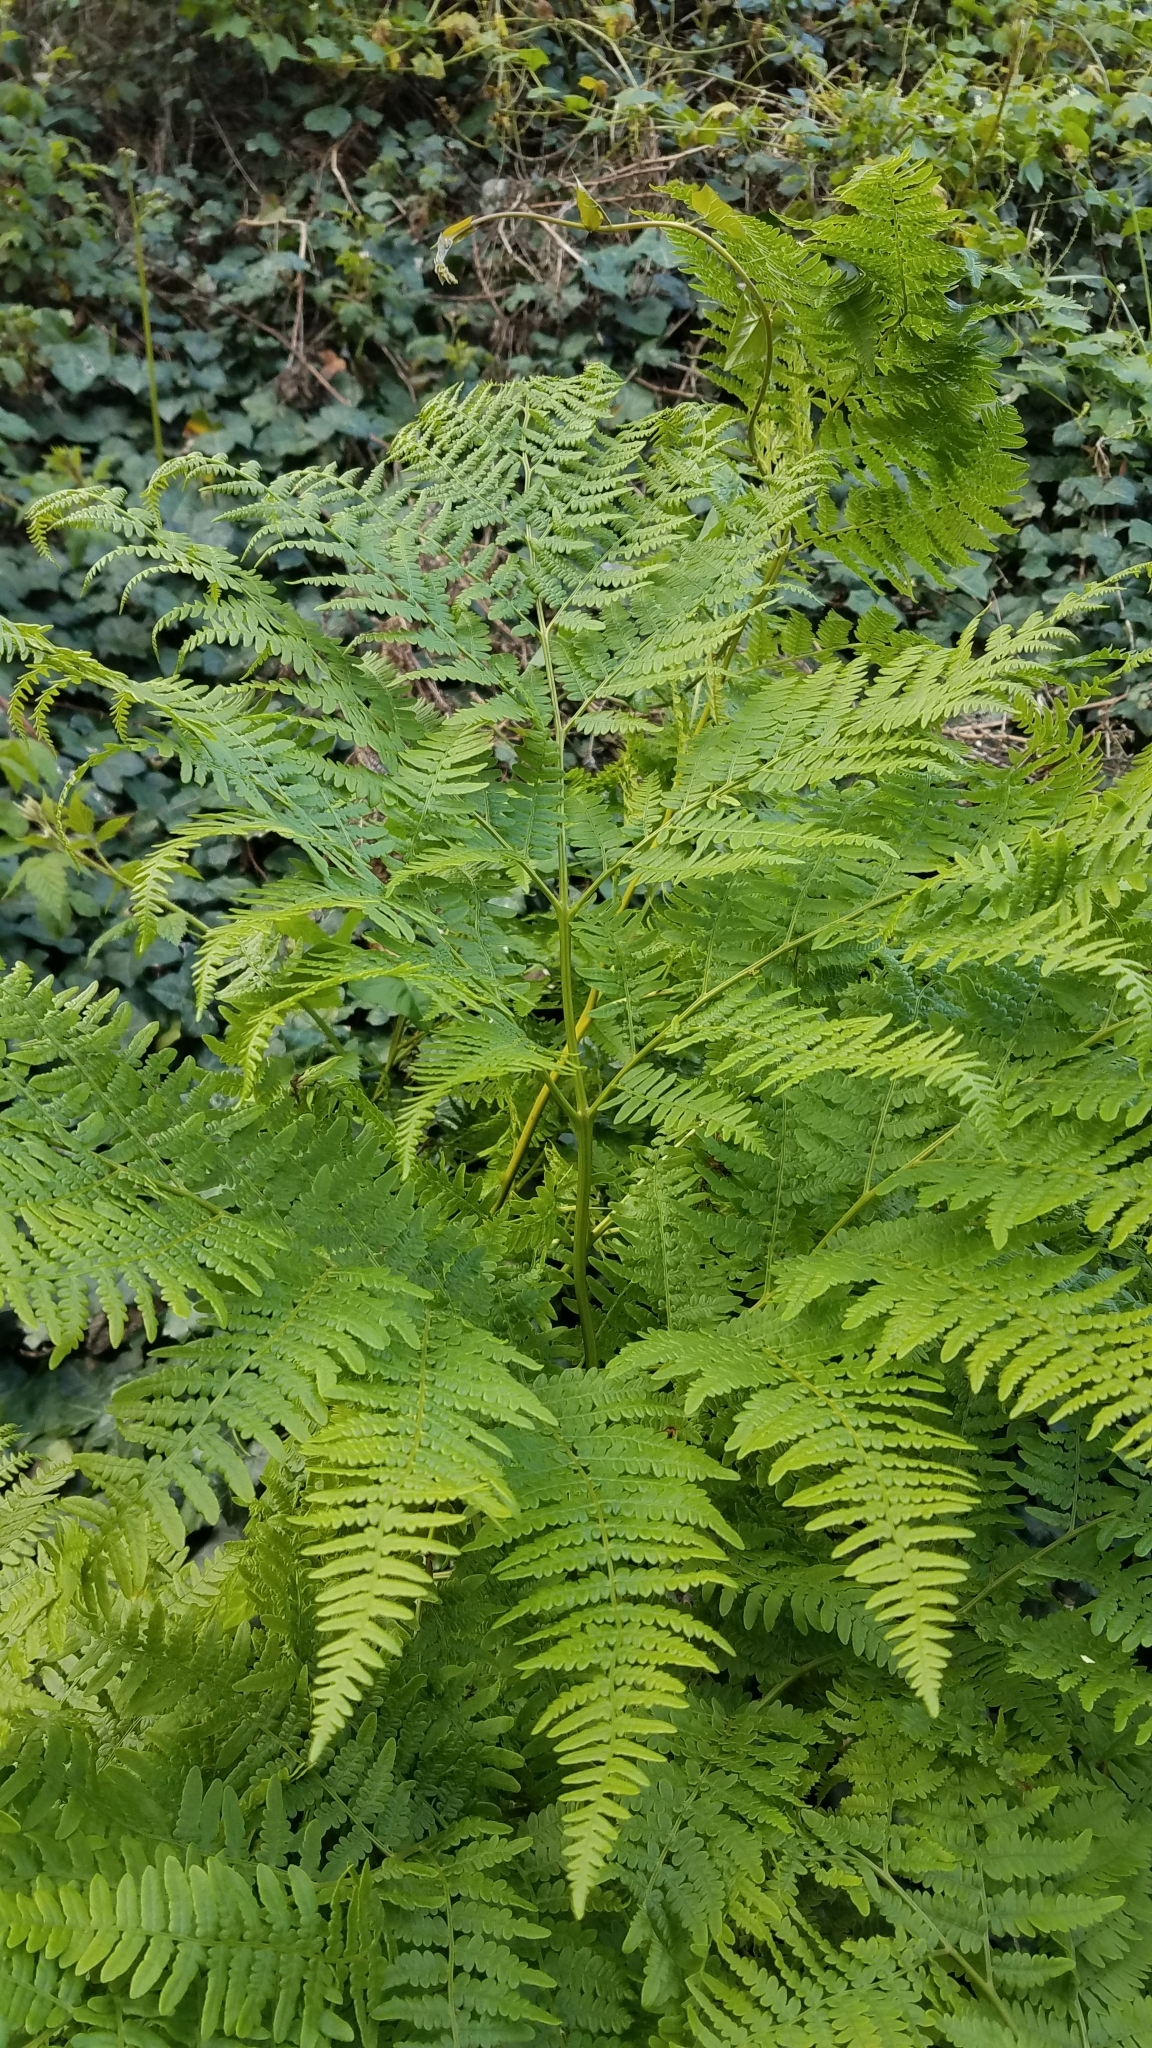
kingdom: Plantae
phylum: Tracheophyta
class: Polypodiopsida
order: Polypodiales
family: Dennstaedtiaceae
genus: Pteridium
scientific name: Pteridium aquilinum
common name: Bracken
